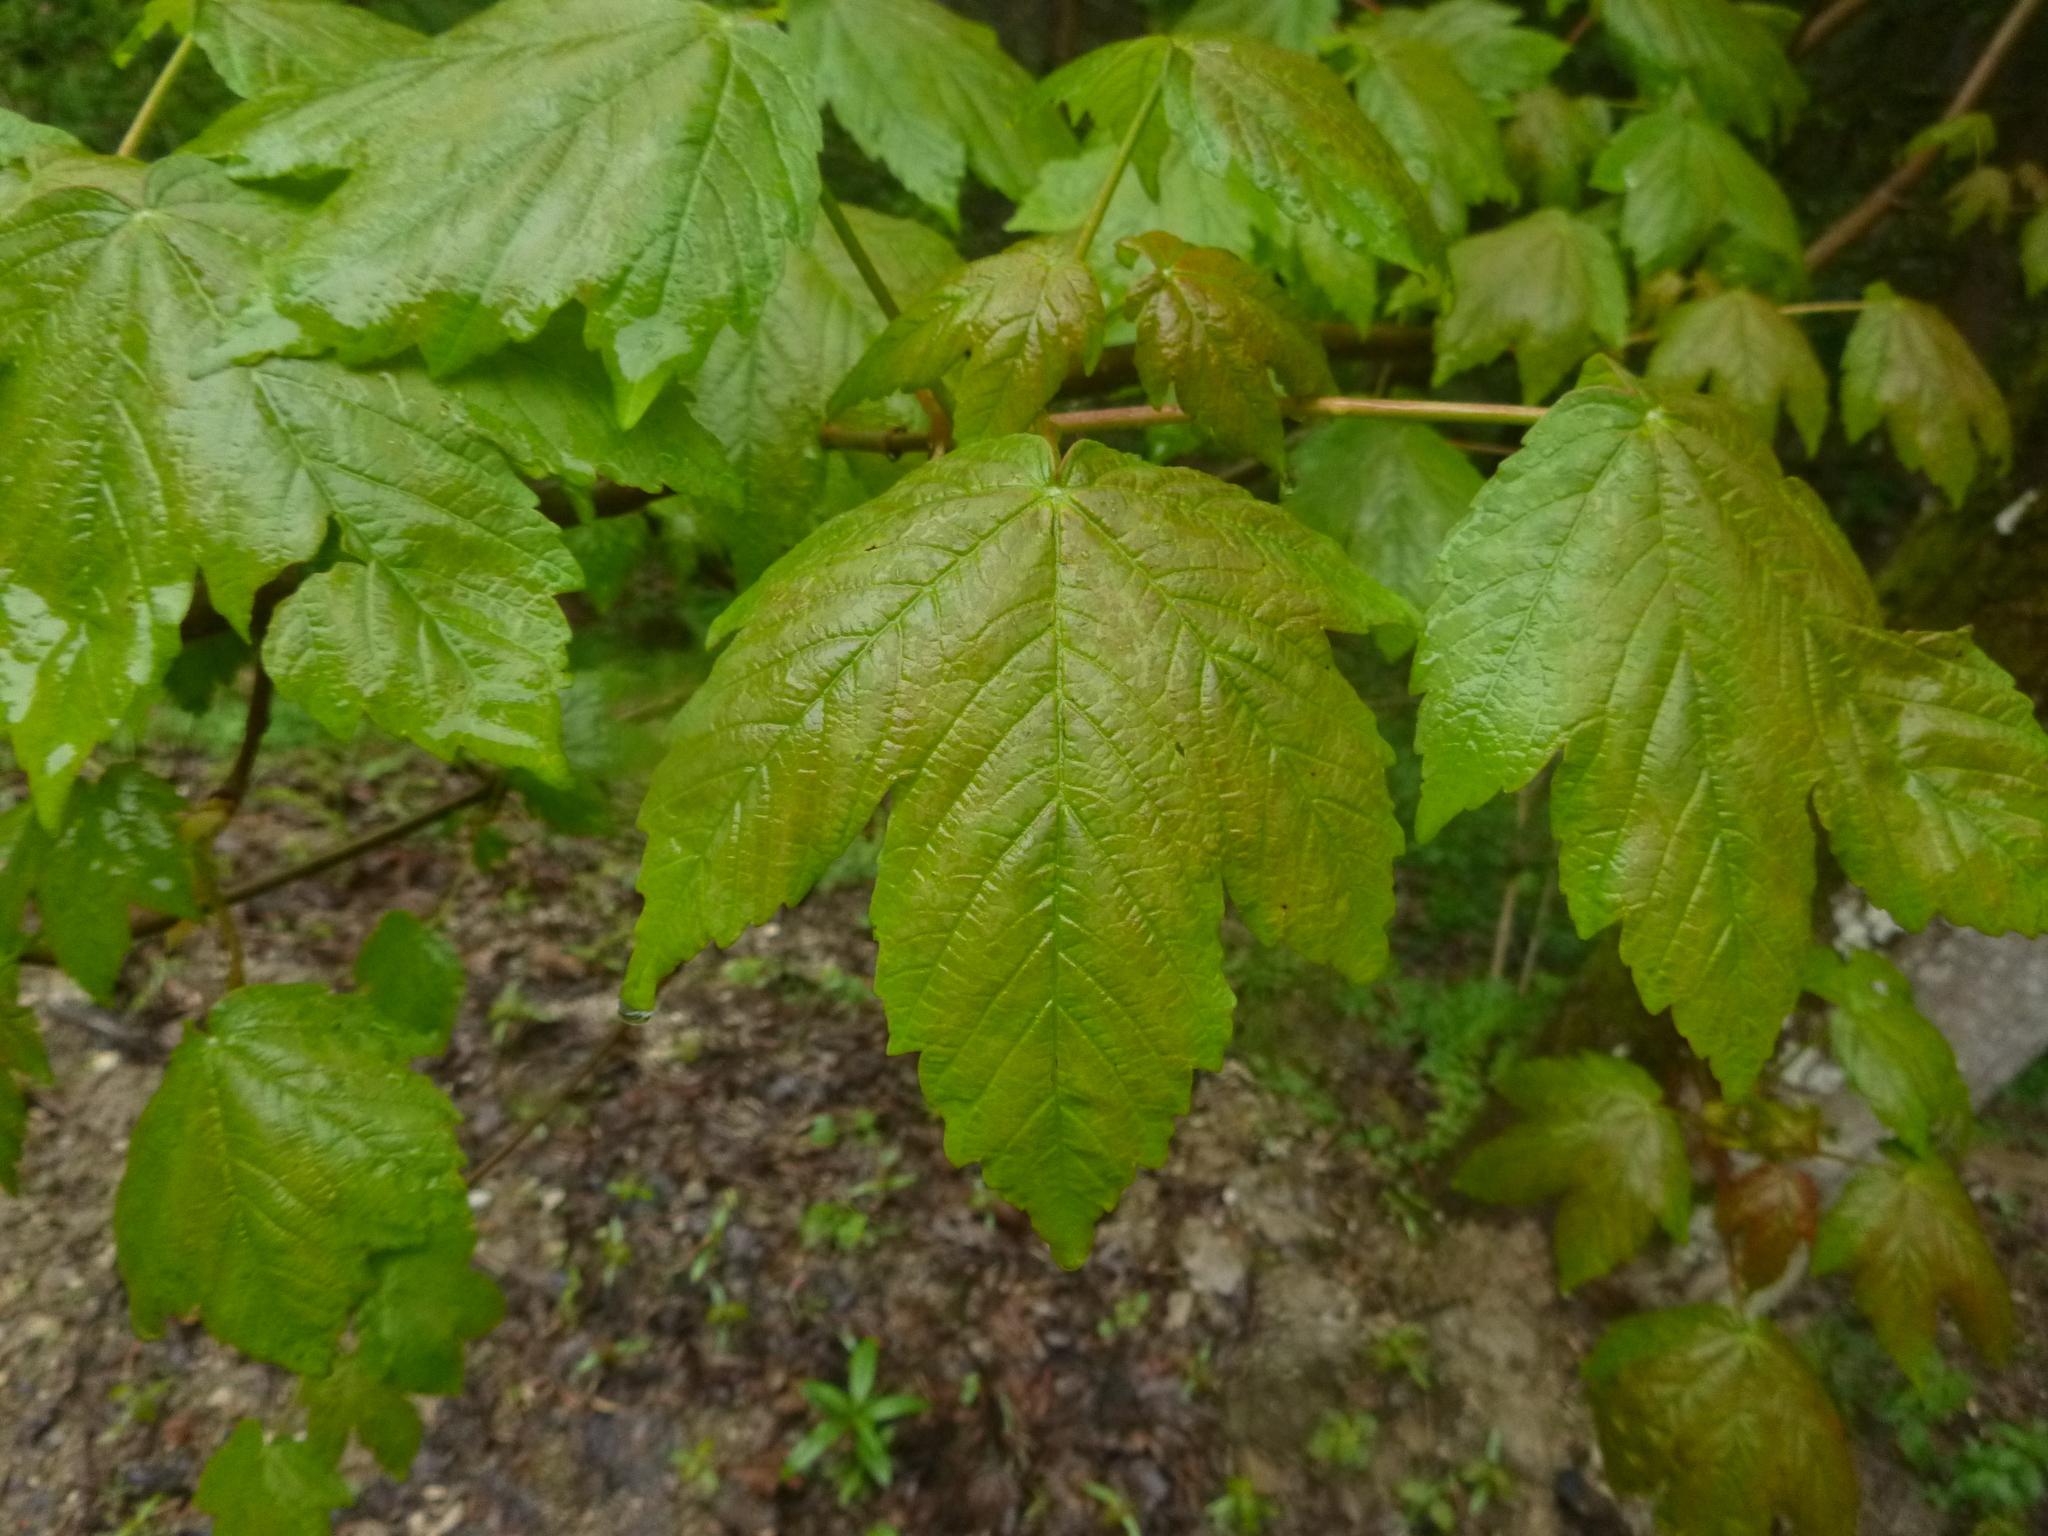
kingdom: Plantae
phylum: Tracheophyta
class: Magnoliopsida
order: Sapindales
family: Sapindaceae
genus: Acer
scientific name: Acer pseudoplatanus
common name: Sycamore
